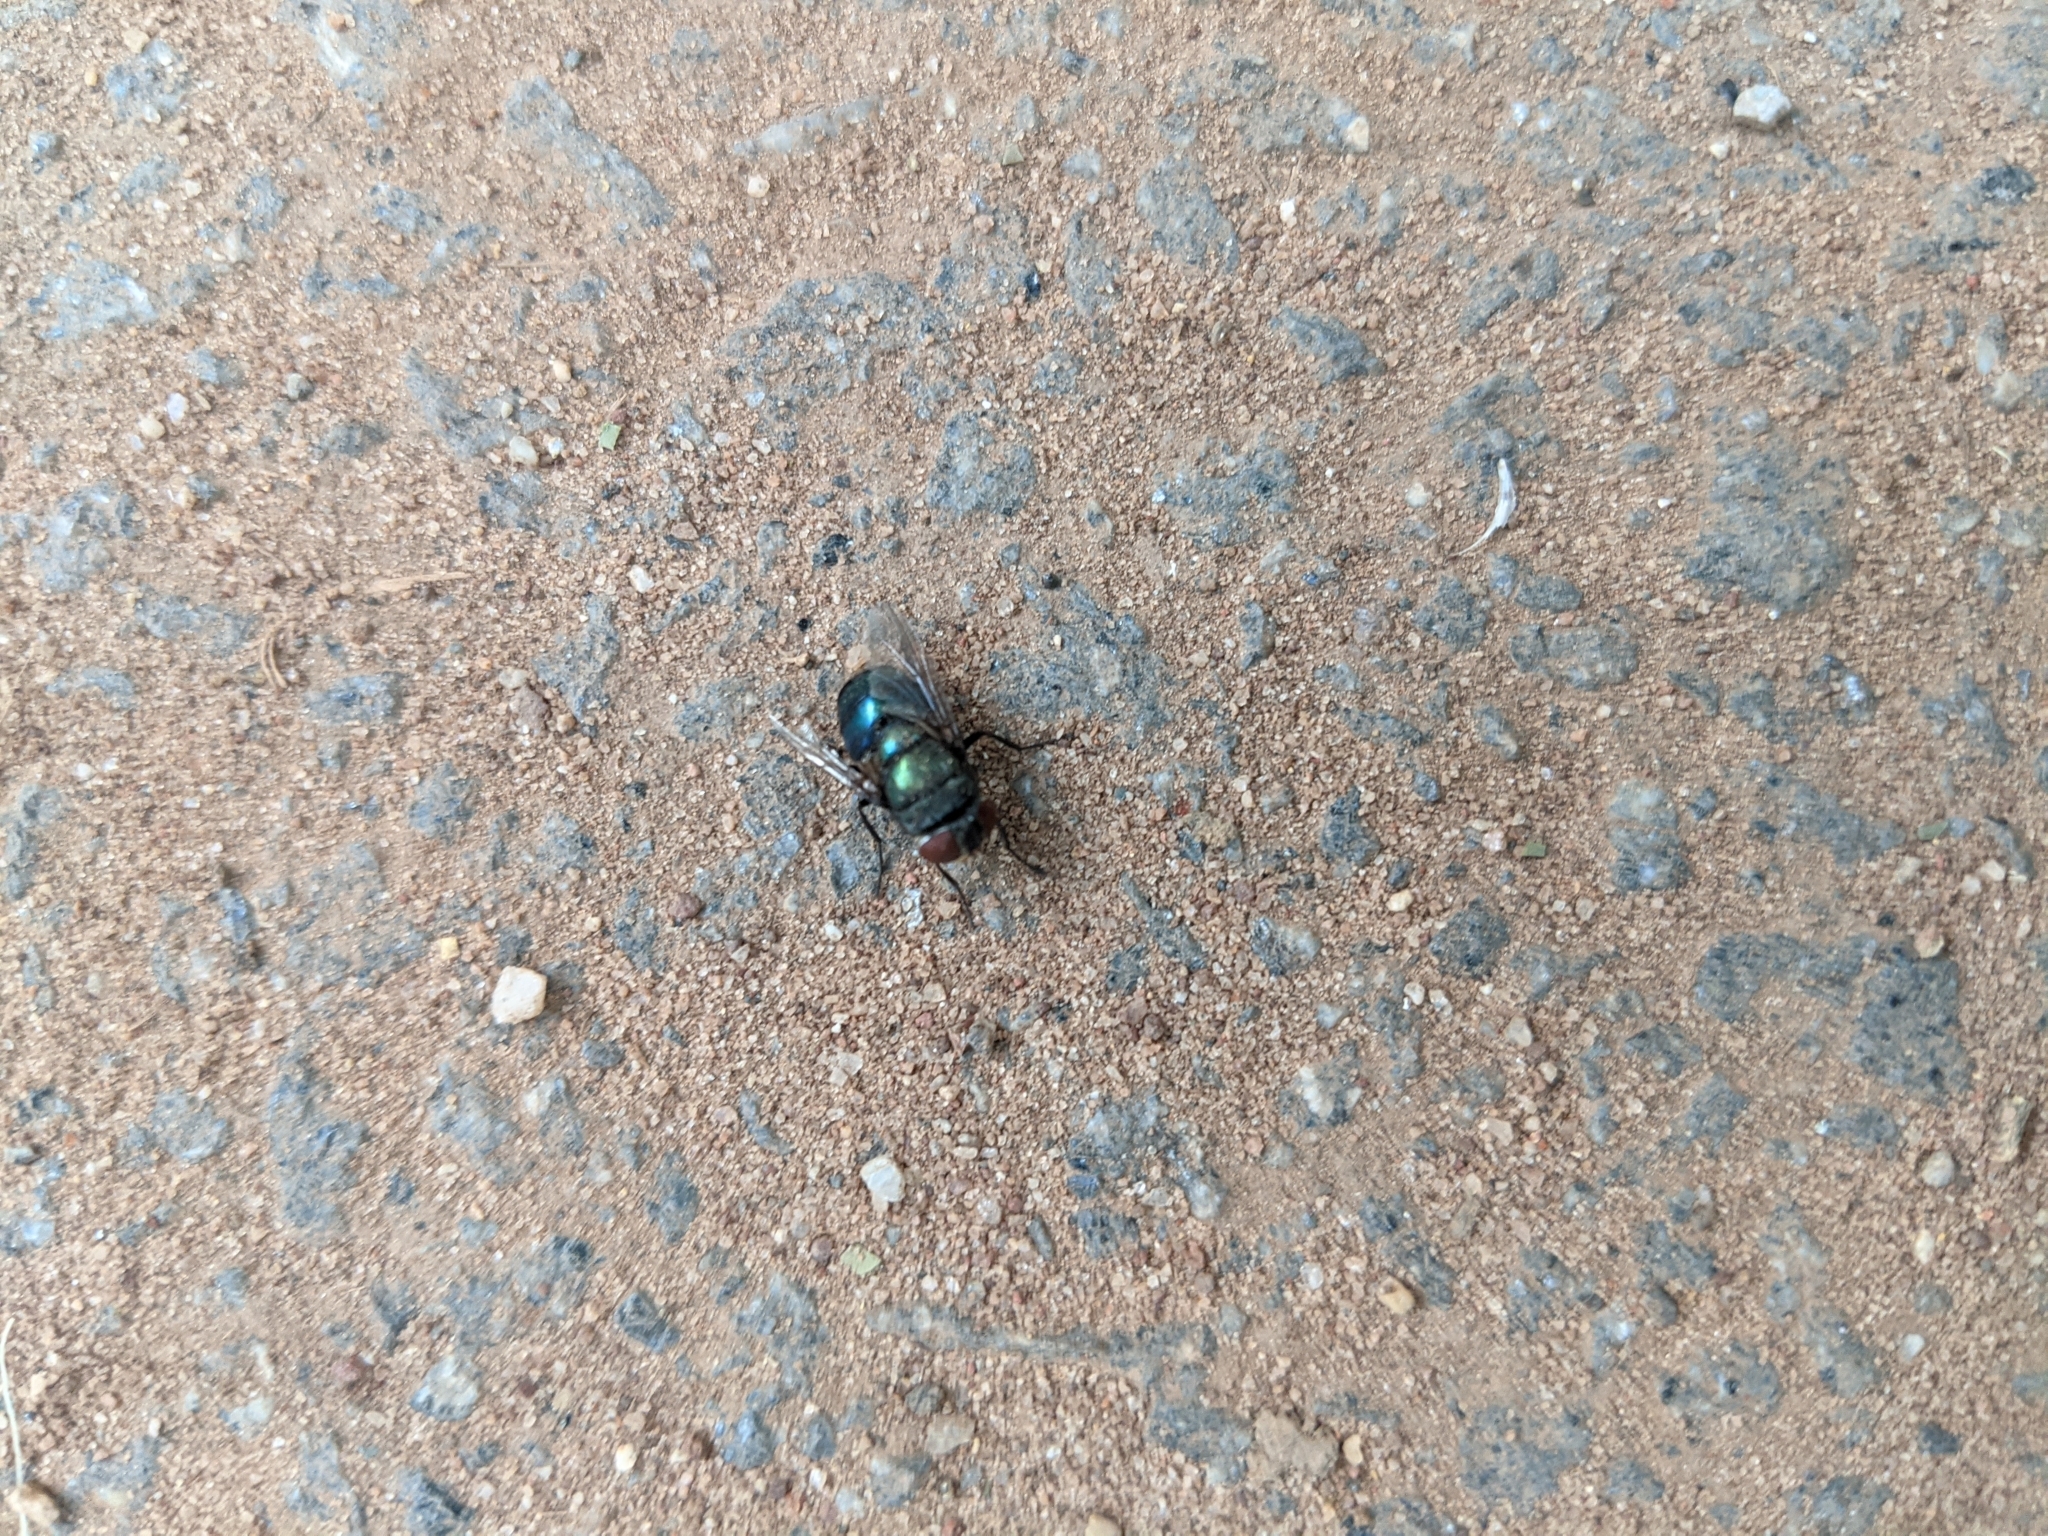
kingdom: Animalia
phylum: Arthropoda
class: Insecta
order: Diptera
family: Calliphoridae
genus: Chrysomya
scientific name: Chrysomya megacephala
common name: Blow fly
